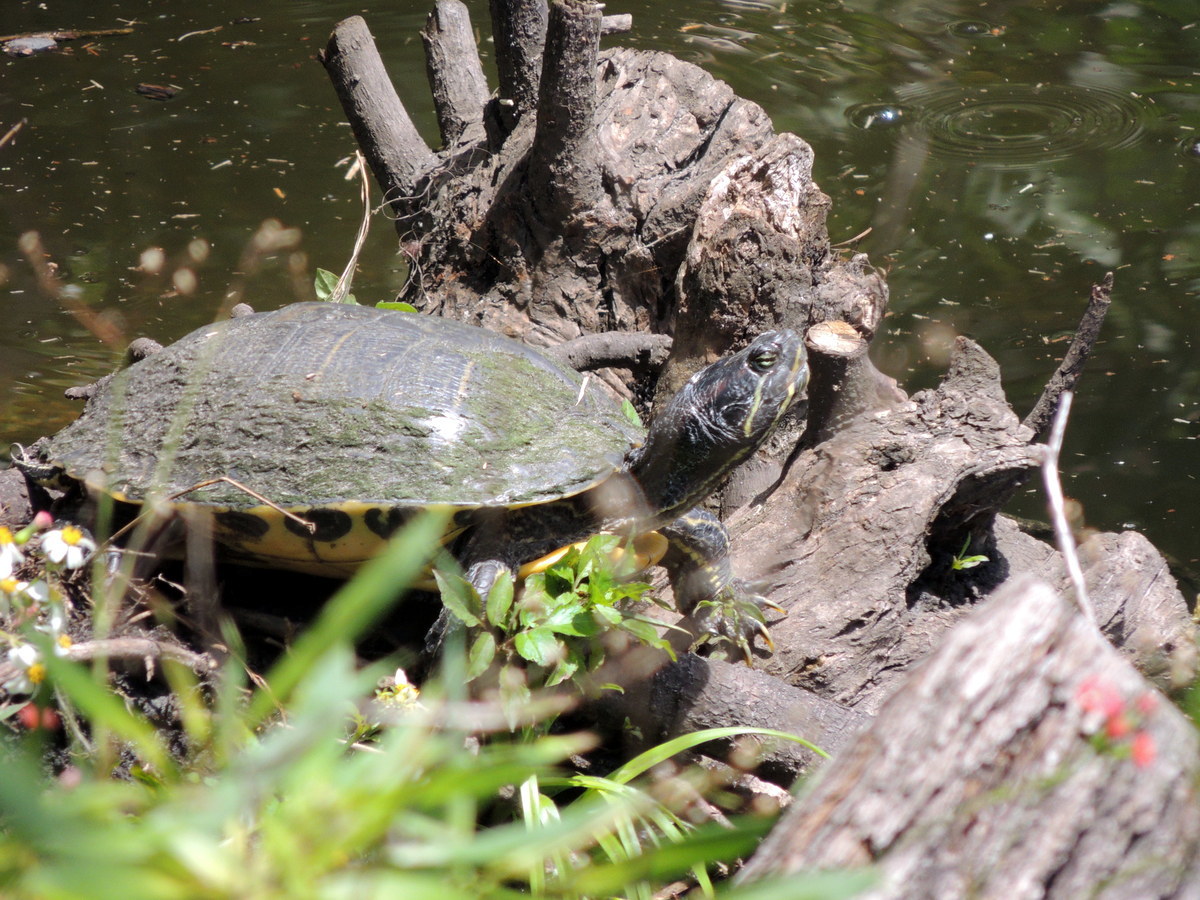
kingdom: Animalia
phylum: Chordata
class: Testudines
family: Emydidae
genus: Trachemys
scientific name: Trachemys scripta
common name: Slider
